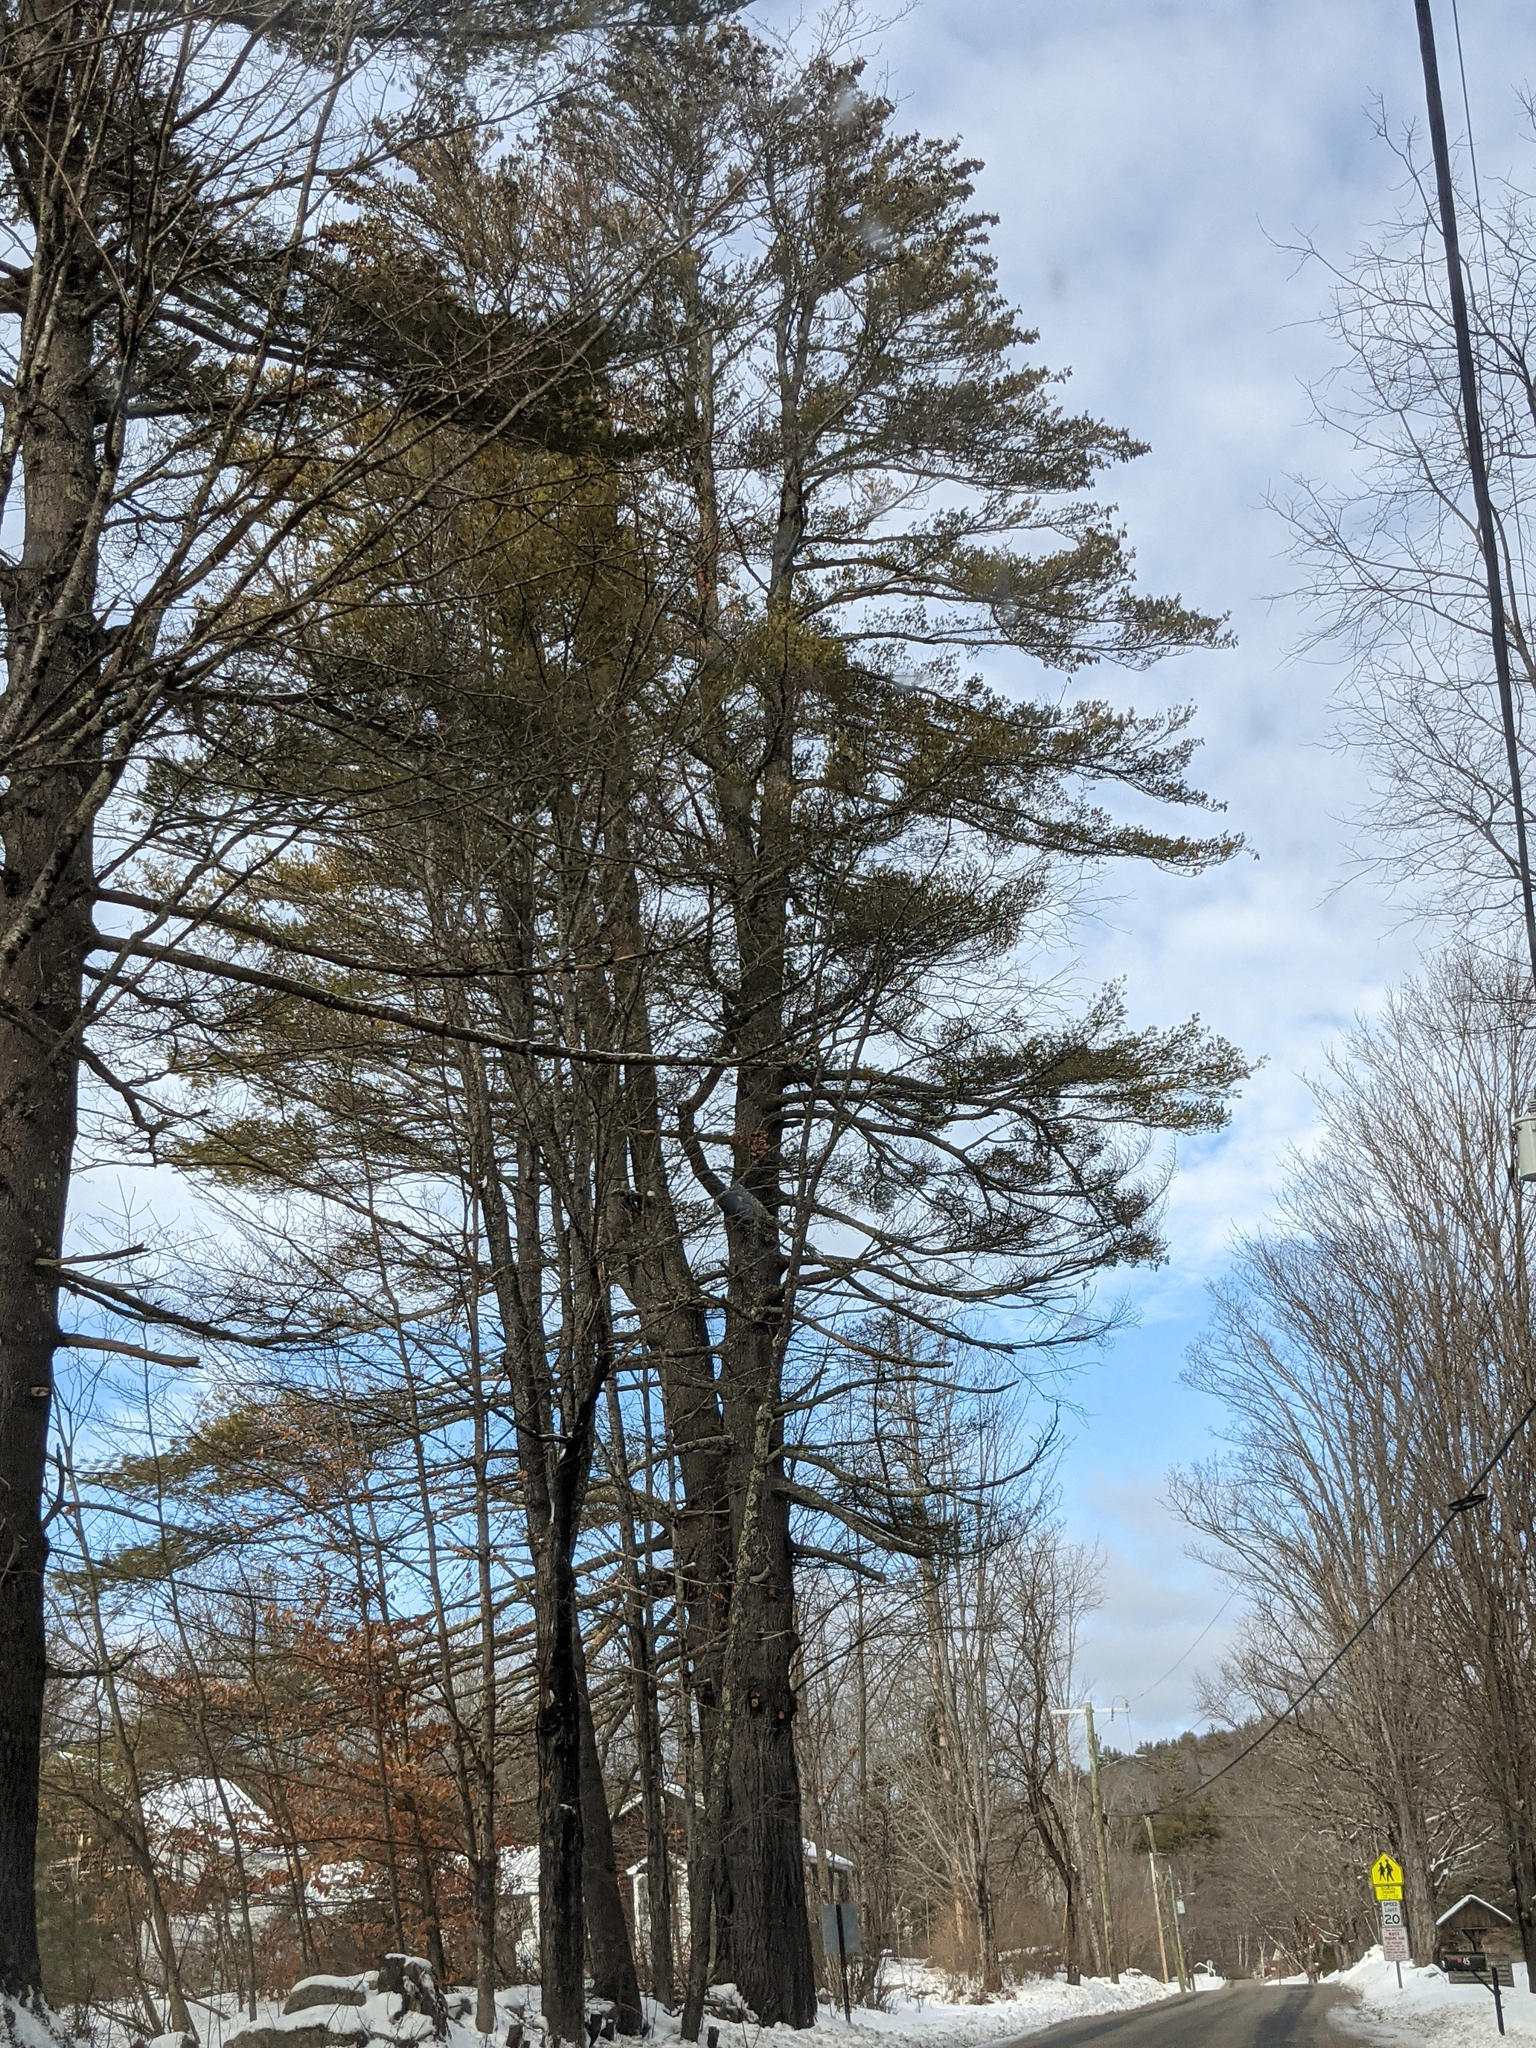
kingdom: Plantae
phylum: Tracheophyta
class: Pinopsida
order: Pinales
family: Pinaceae
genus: Pinus
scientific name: Pinus strobus
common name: Weymouth pine
